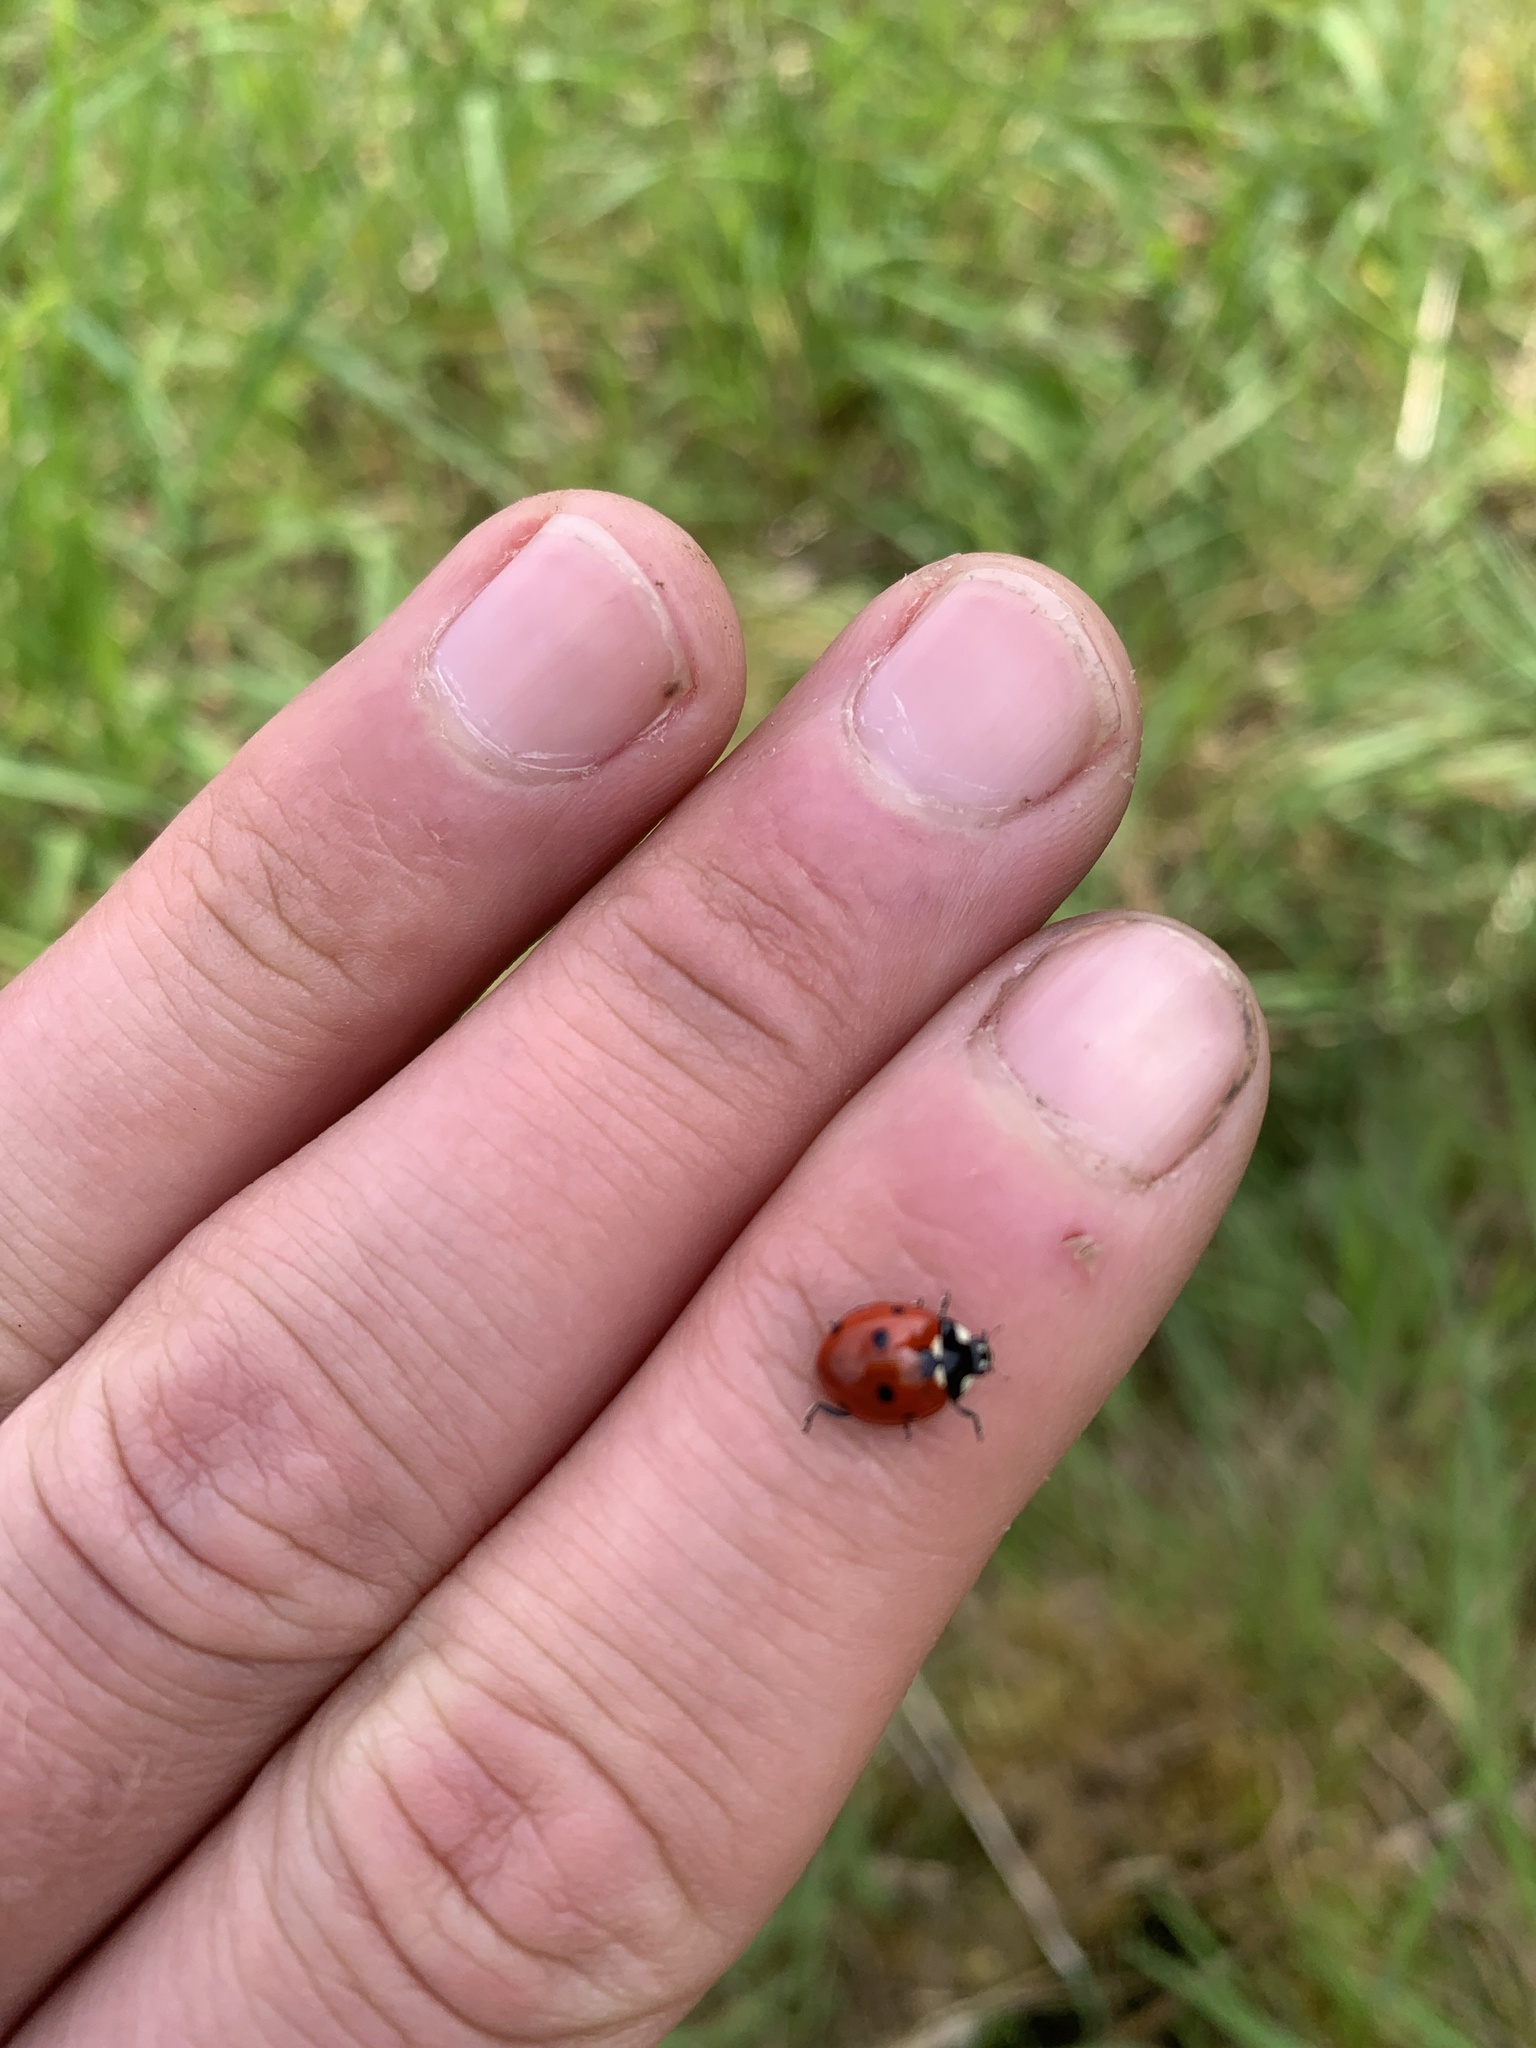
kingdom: Animalia
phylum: Arthropoda
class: Insecta
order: Coleoptera
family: Coccinellidae
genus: Coccinella
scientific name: Coccinella septempunctata
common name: Sevenspotted lady beetle
